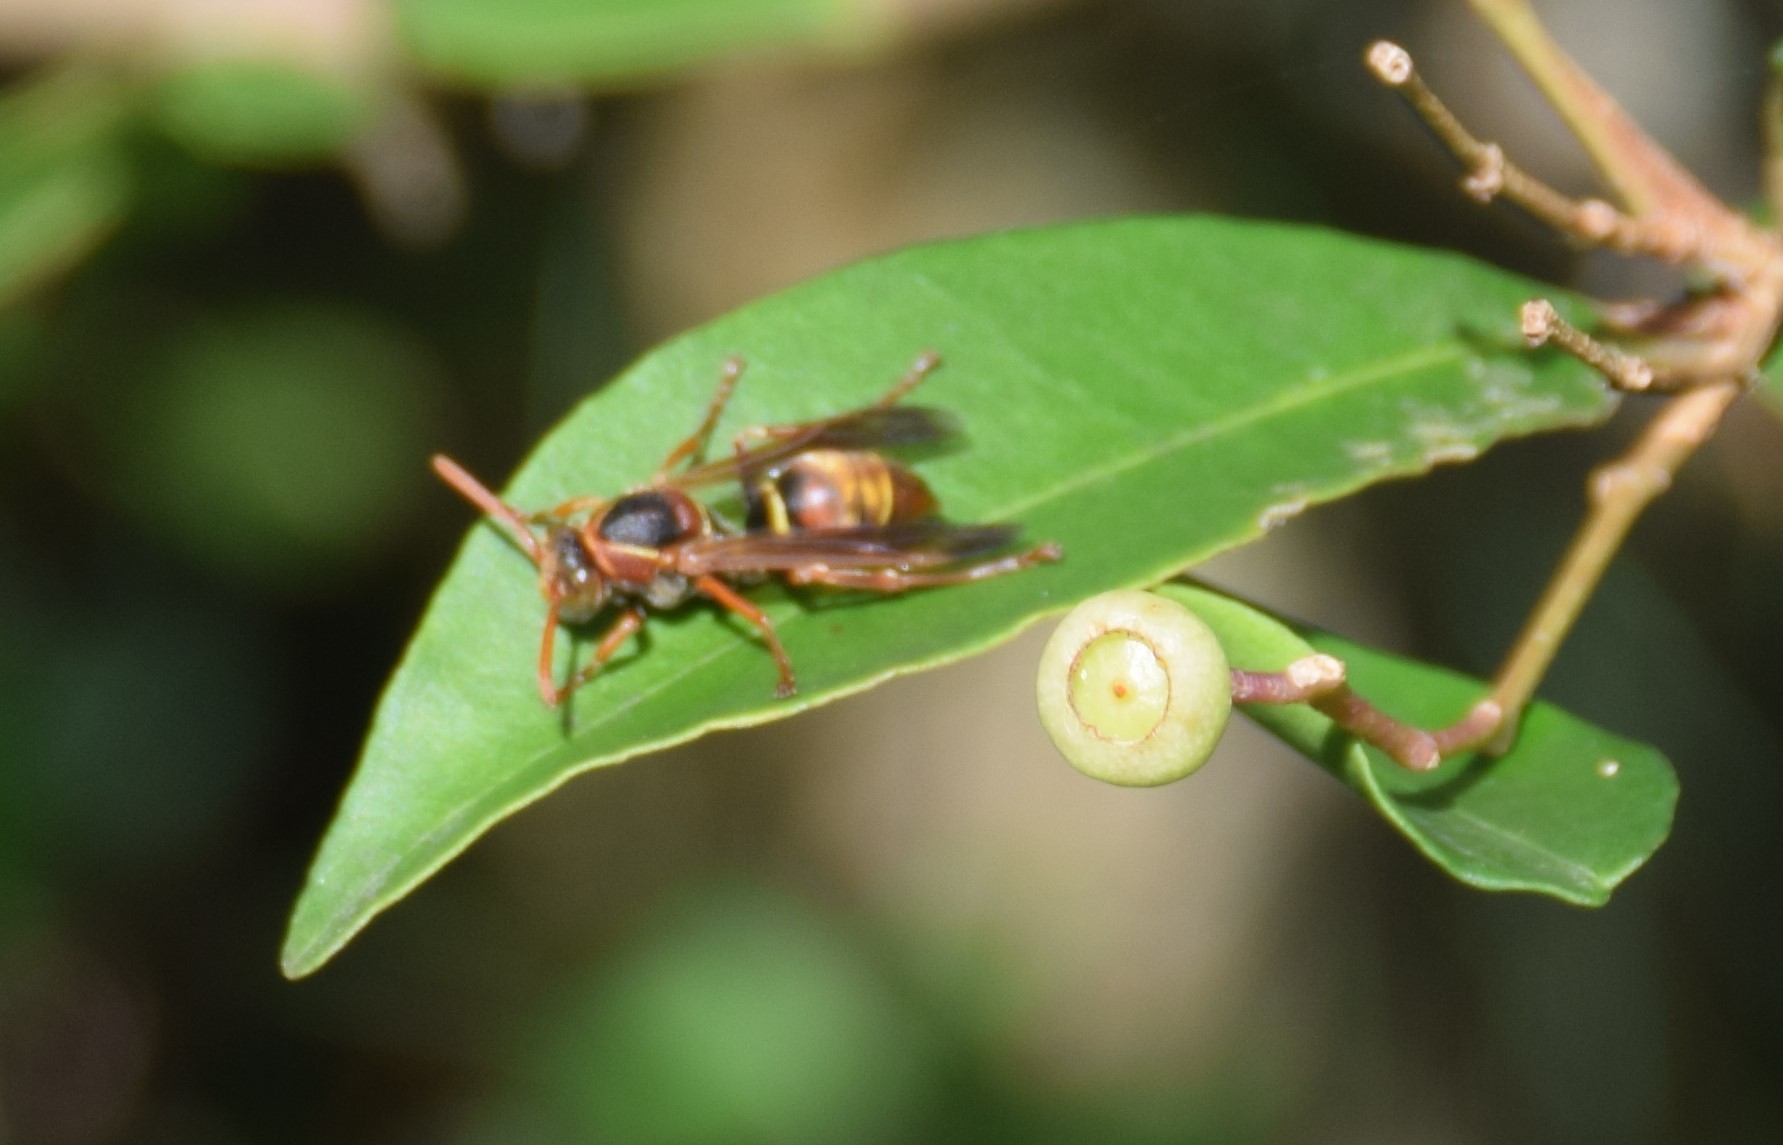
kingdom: Animalia
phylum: Arthropoda
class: Insecta
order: Hymenoptera
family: Eumenidae
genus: Polistes
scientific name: Polistes humilis
